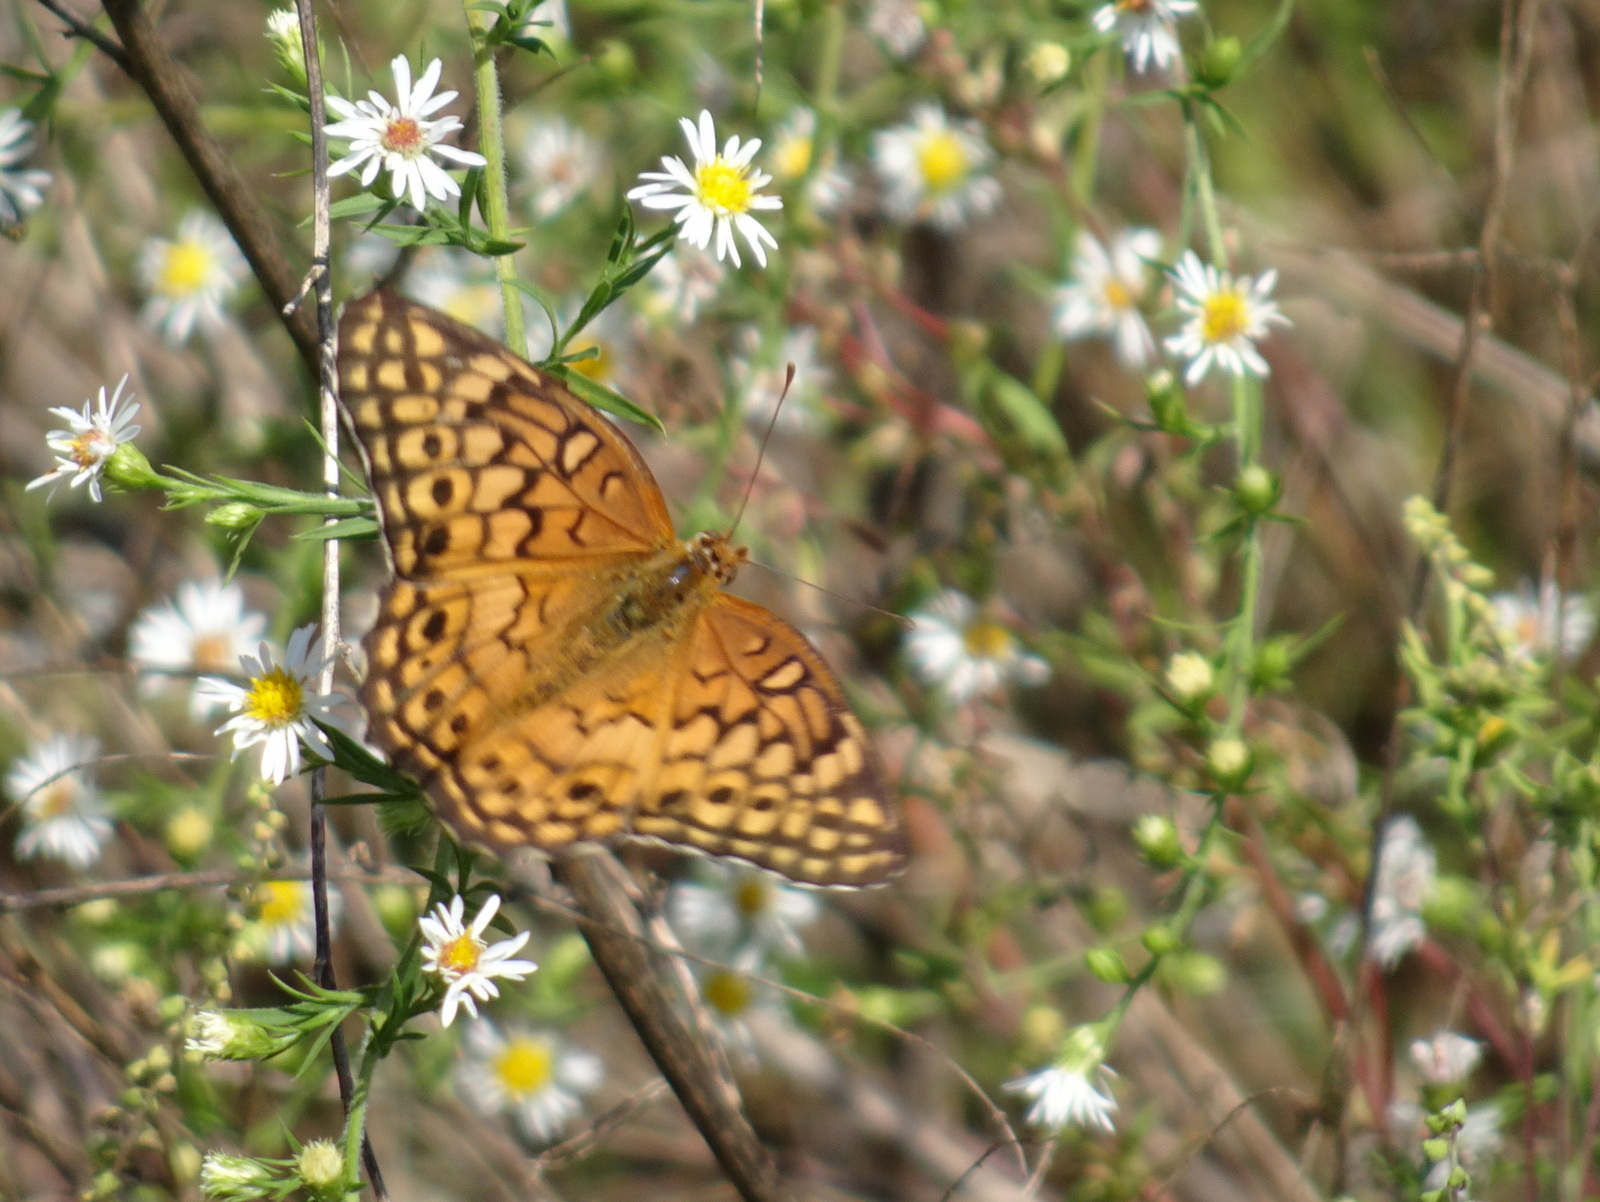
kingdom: Animalia
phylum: Arthropoda
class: Insecta
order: Lepidoptera
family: Nymphalidae
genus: Euptoieta
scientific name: Euptoieta claudia
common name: Variegated fritillary
